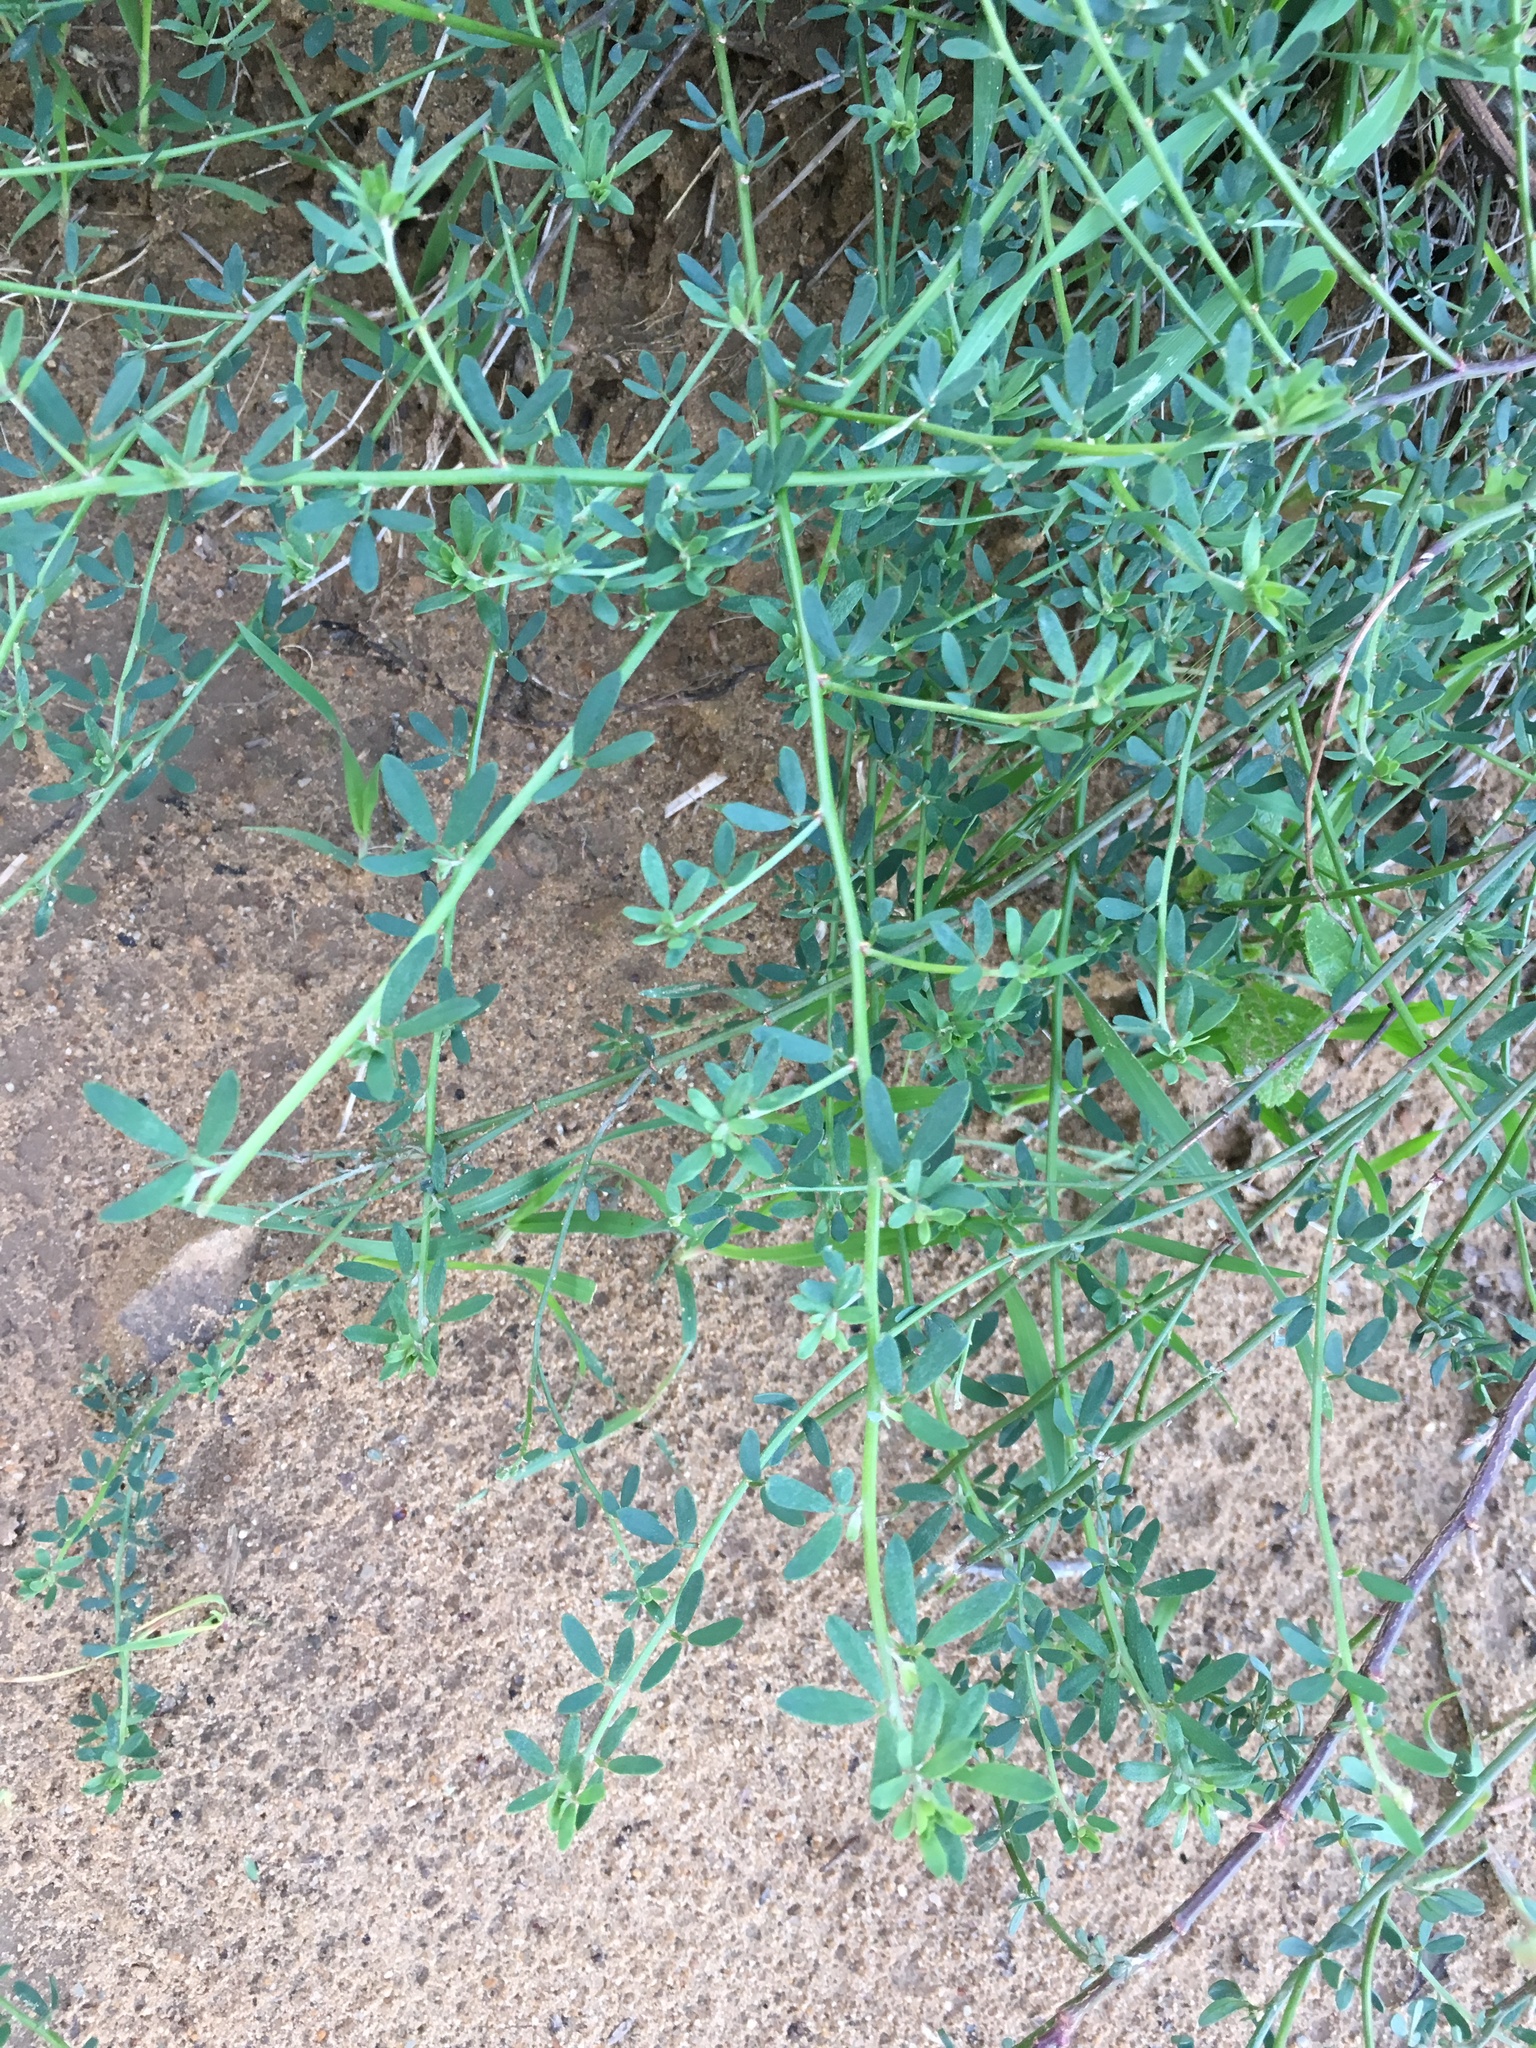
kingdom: Plantae
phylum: Tracheophyta
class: Magnoliopsida
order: Fabales
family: Fabaceae
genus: Acmispon
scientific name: Acmispon glaber
